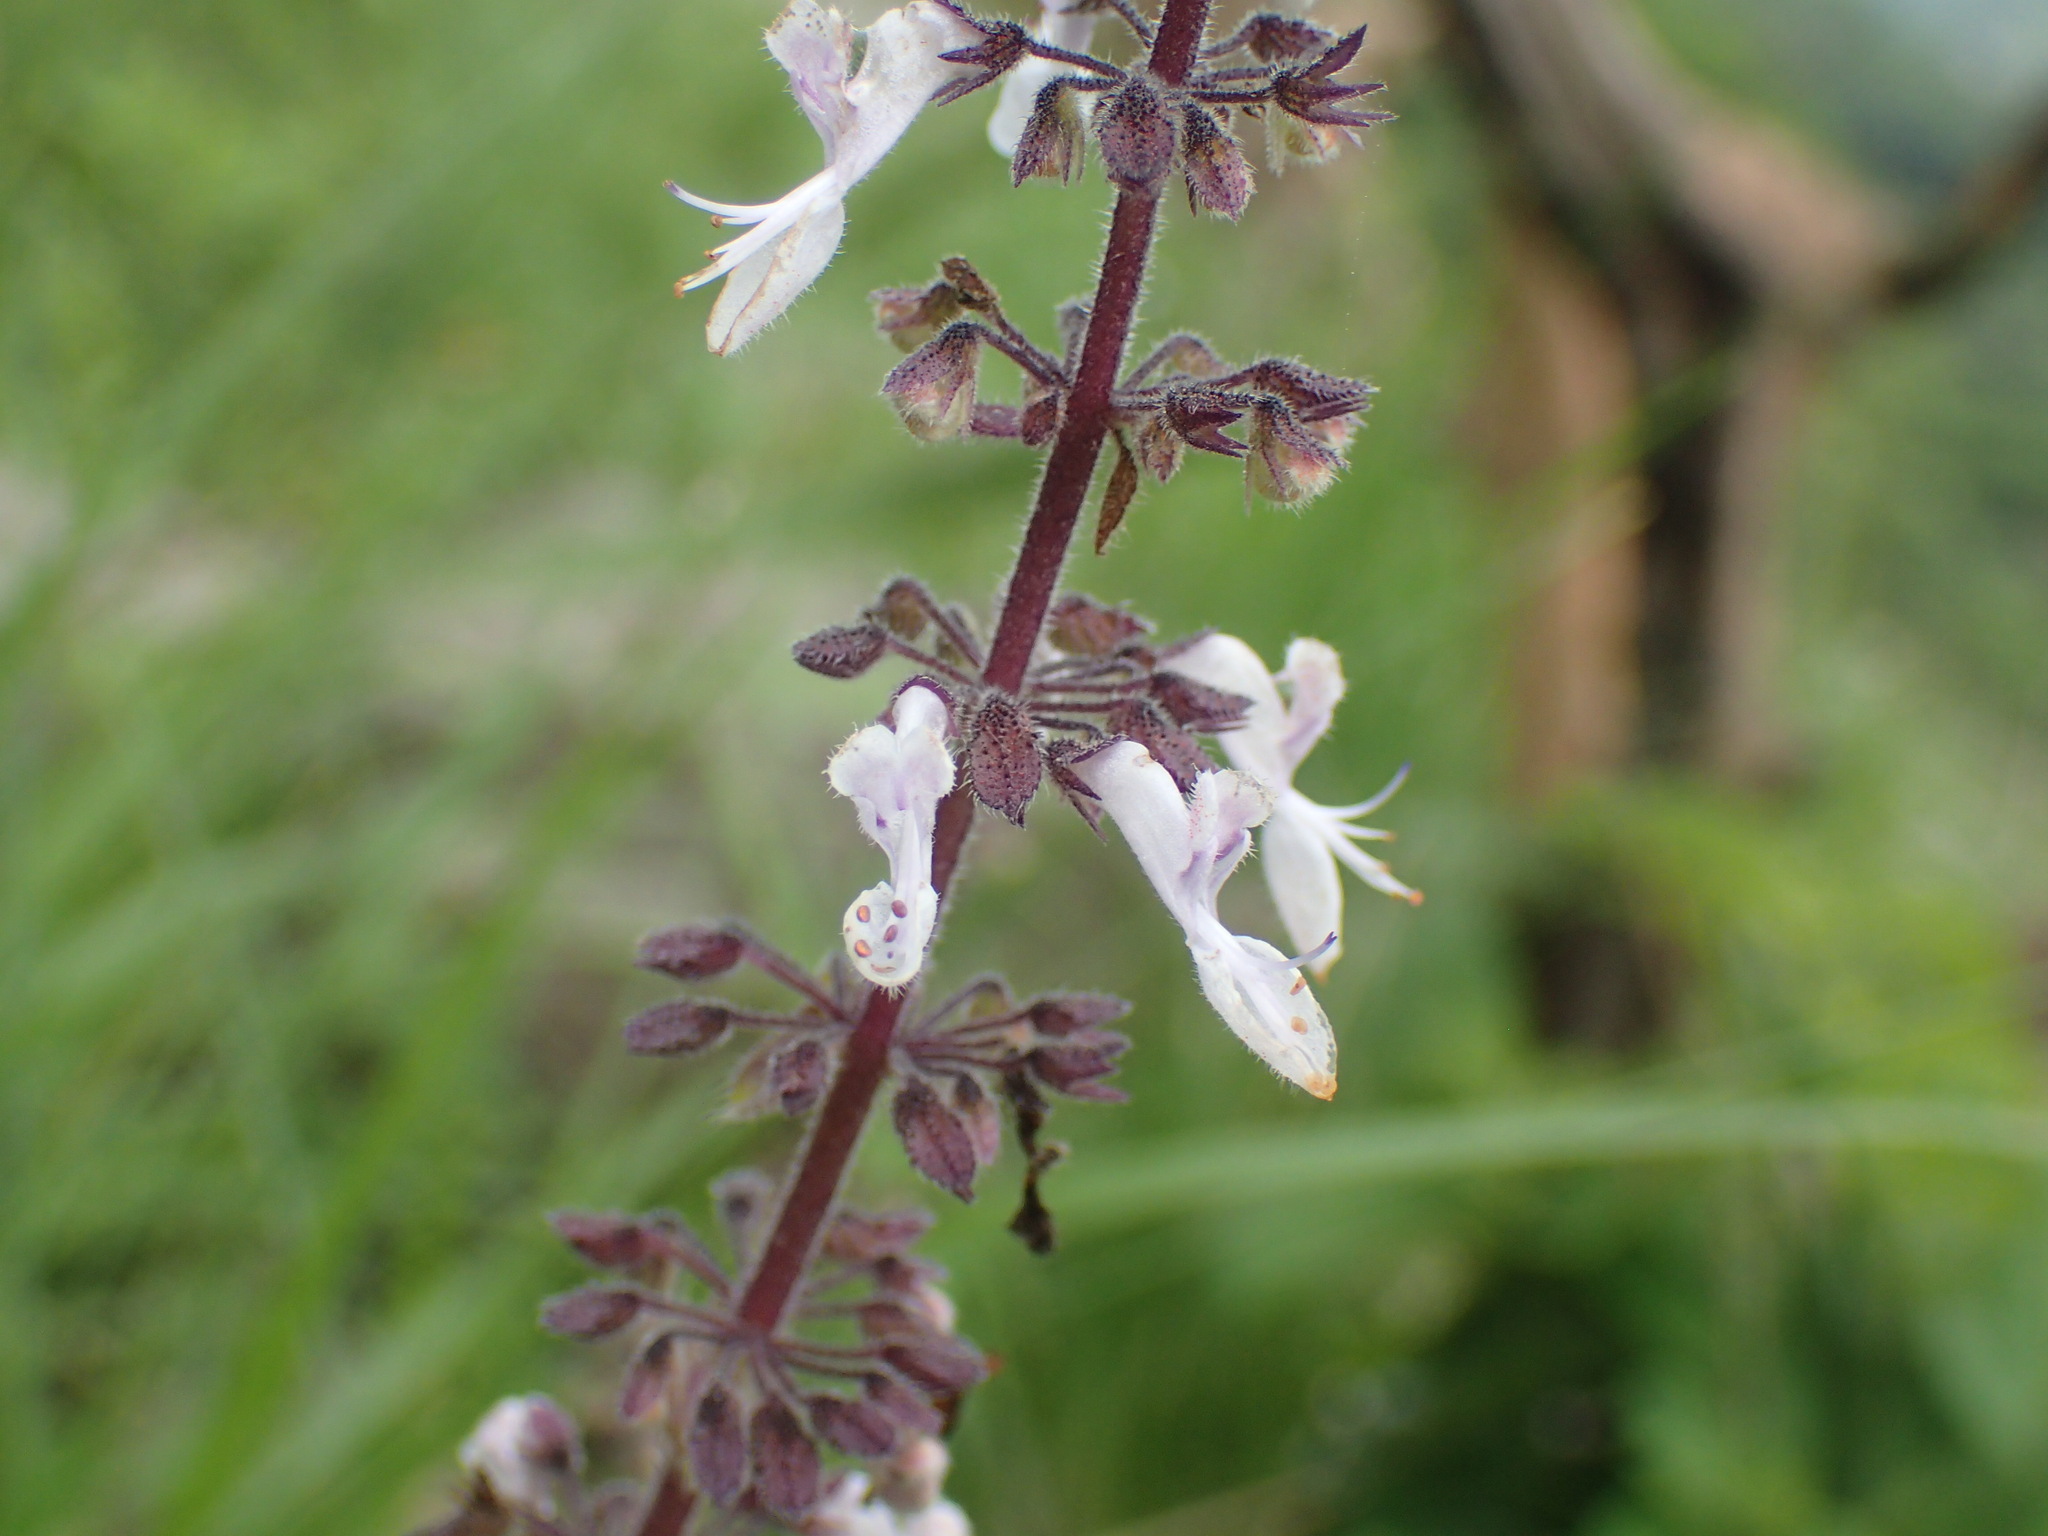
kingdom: Plantae
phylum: Tracheophyta
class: Magnoliopsida
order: Lamiales
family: Lamiaceae
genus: Coleus
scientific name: Coleus hadiensis
